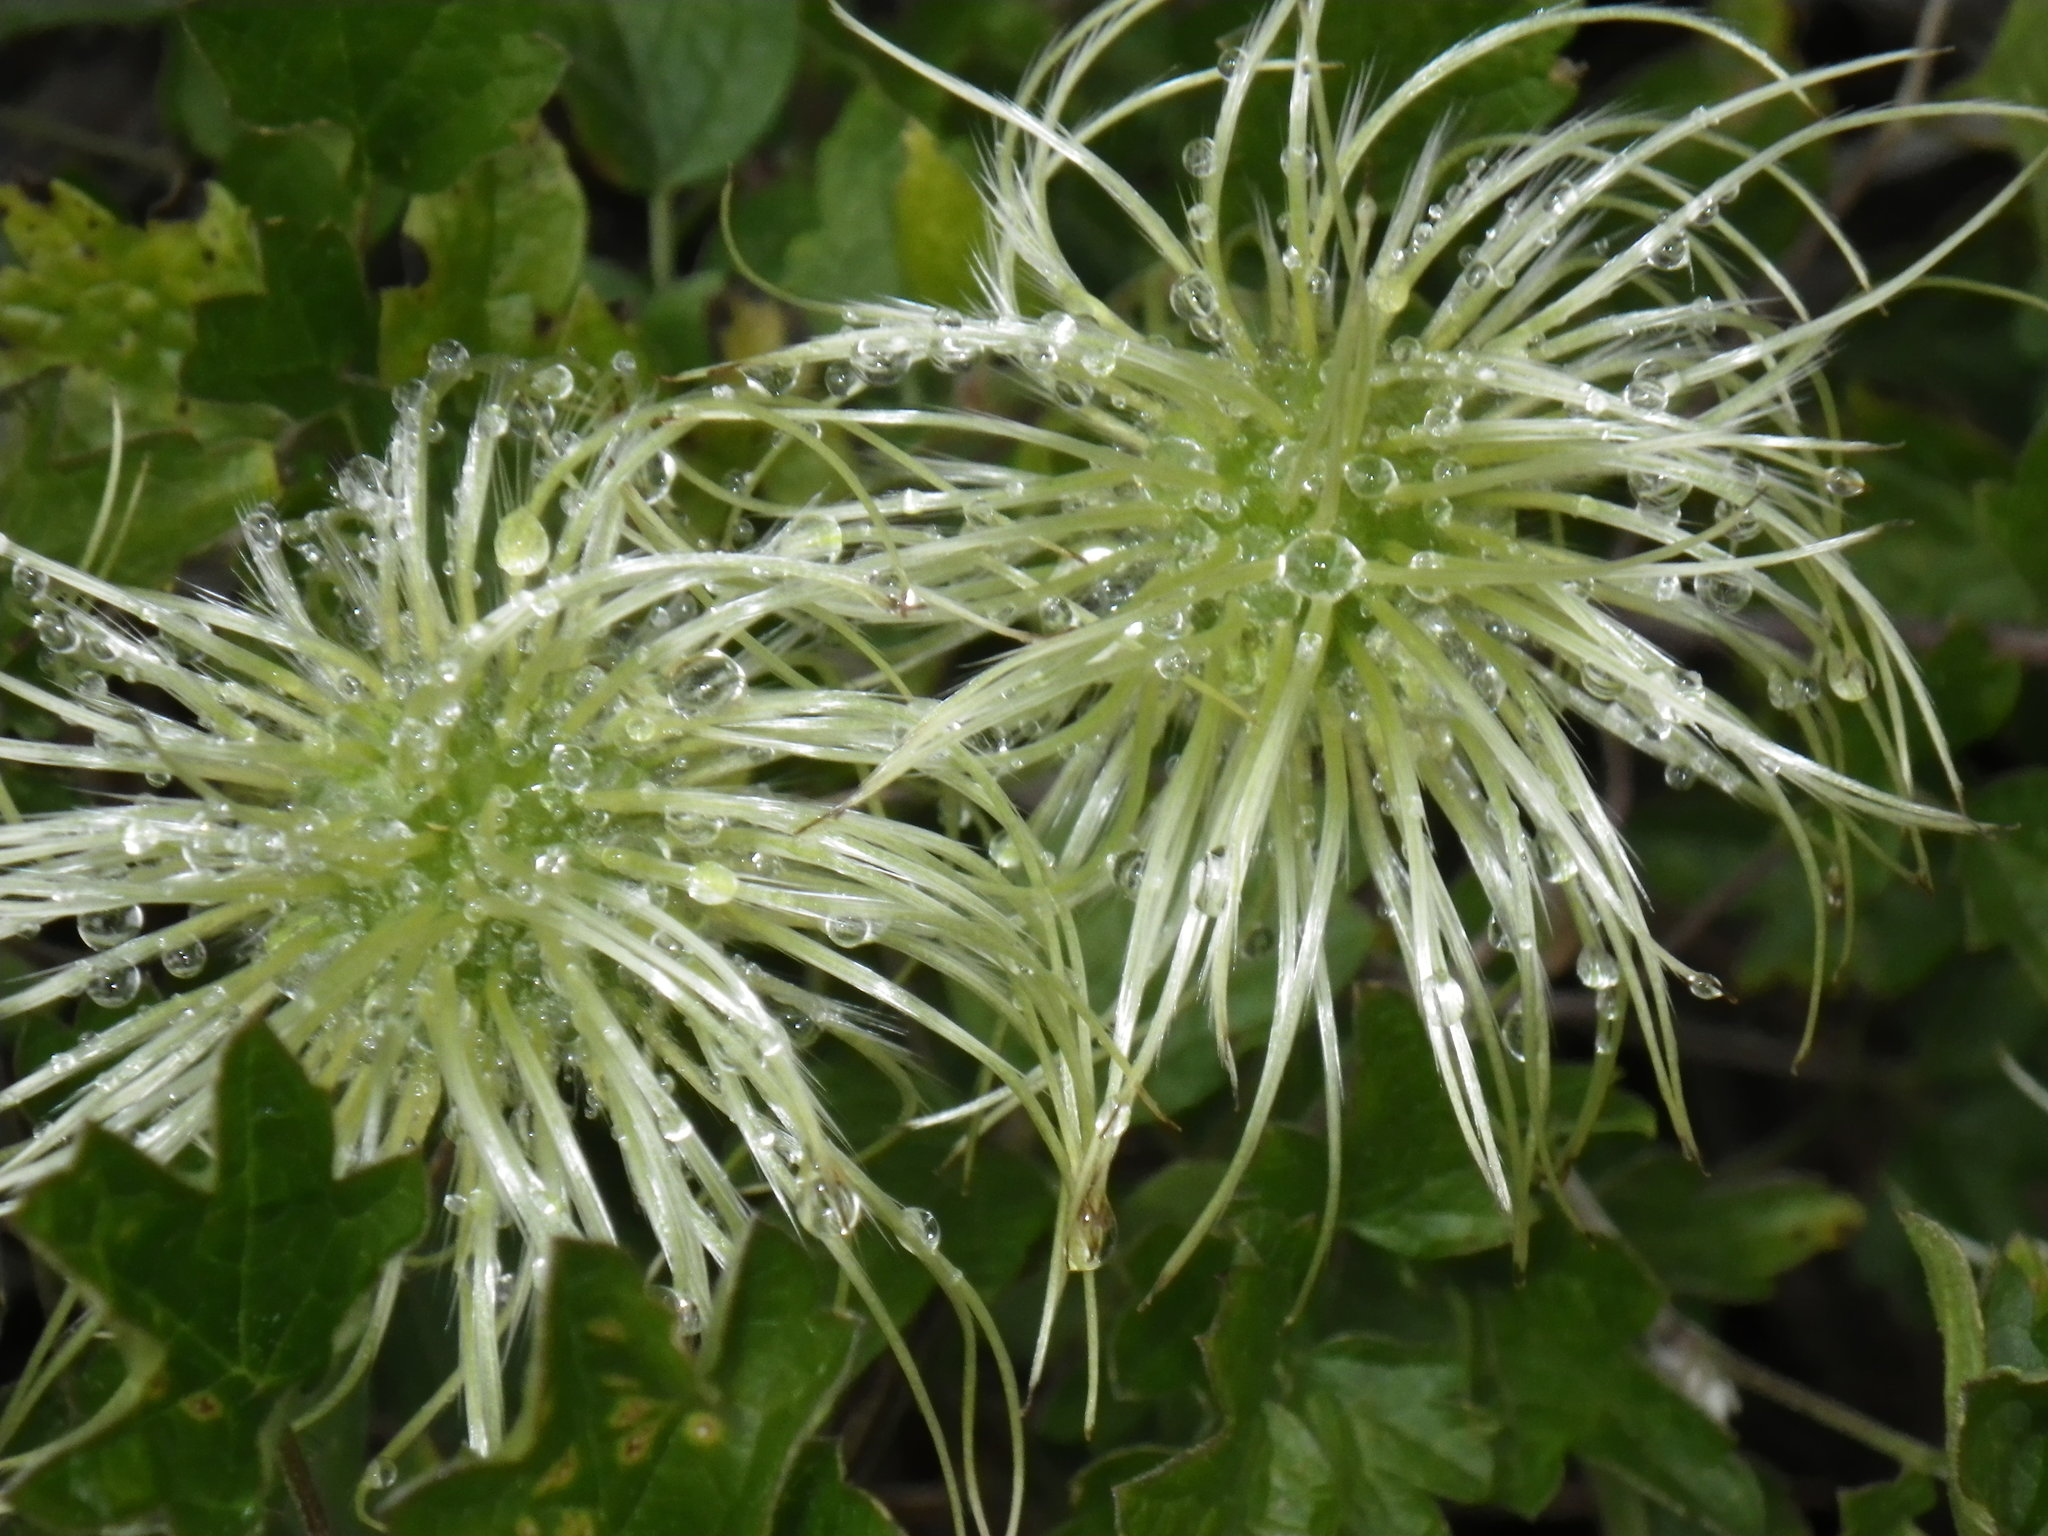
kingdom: Plantae
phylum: Tracheophyta
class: Magnoliopsida
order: Ranunculales
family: Ranunculaceae
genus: Clematis
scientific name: Clematis lasiantha
